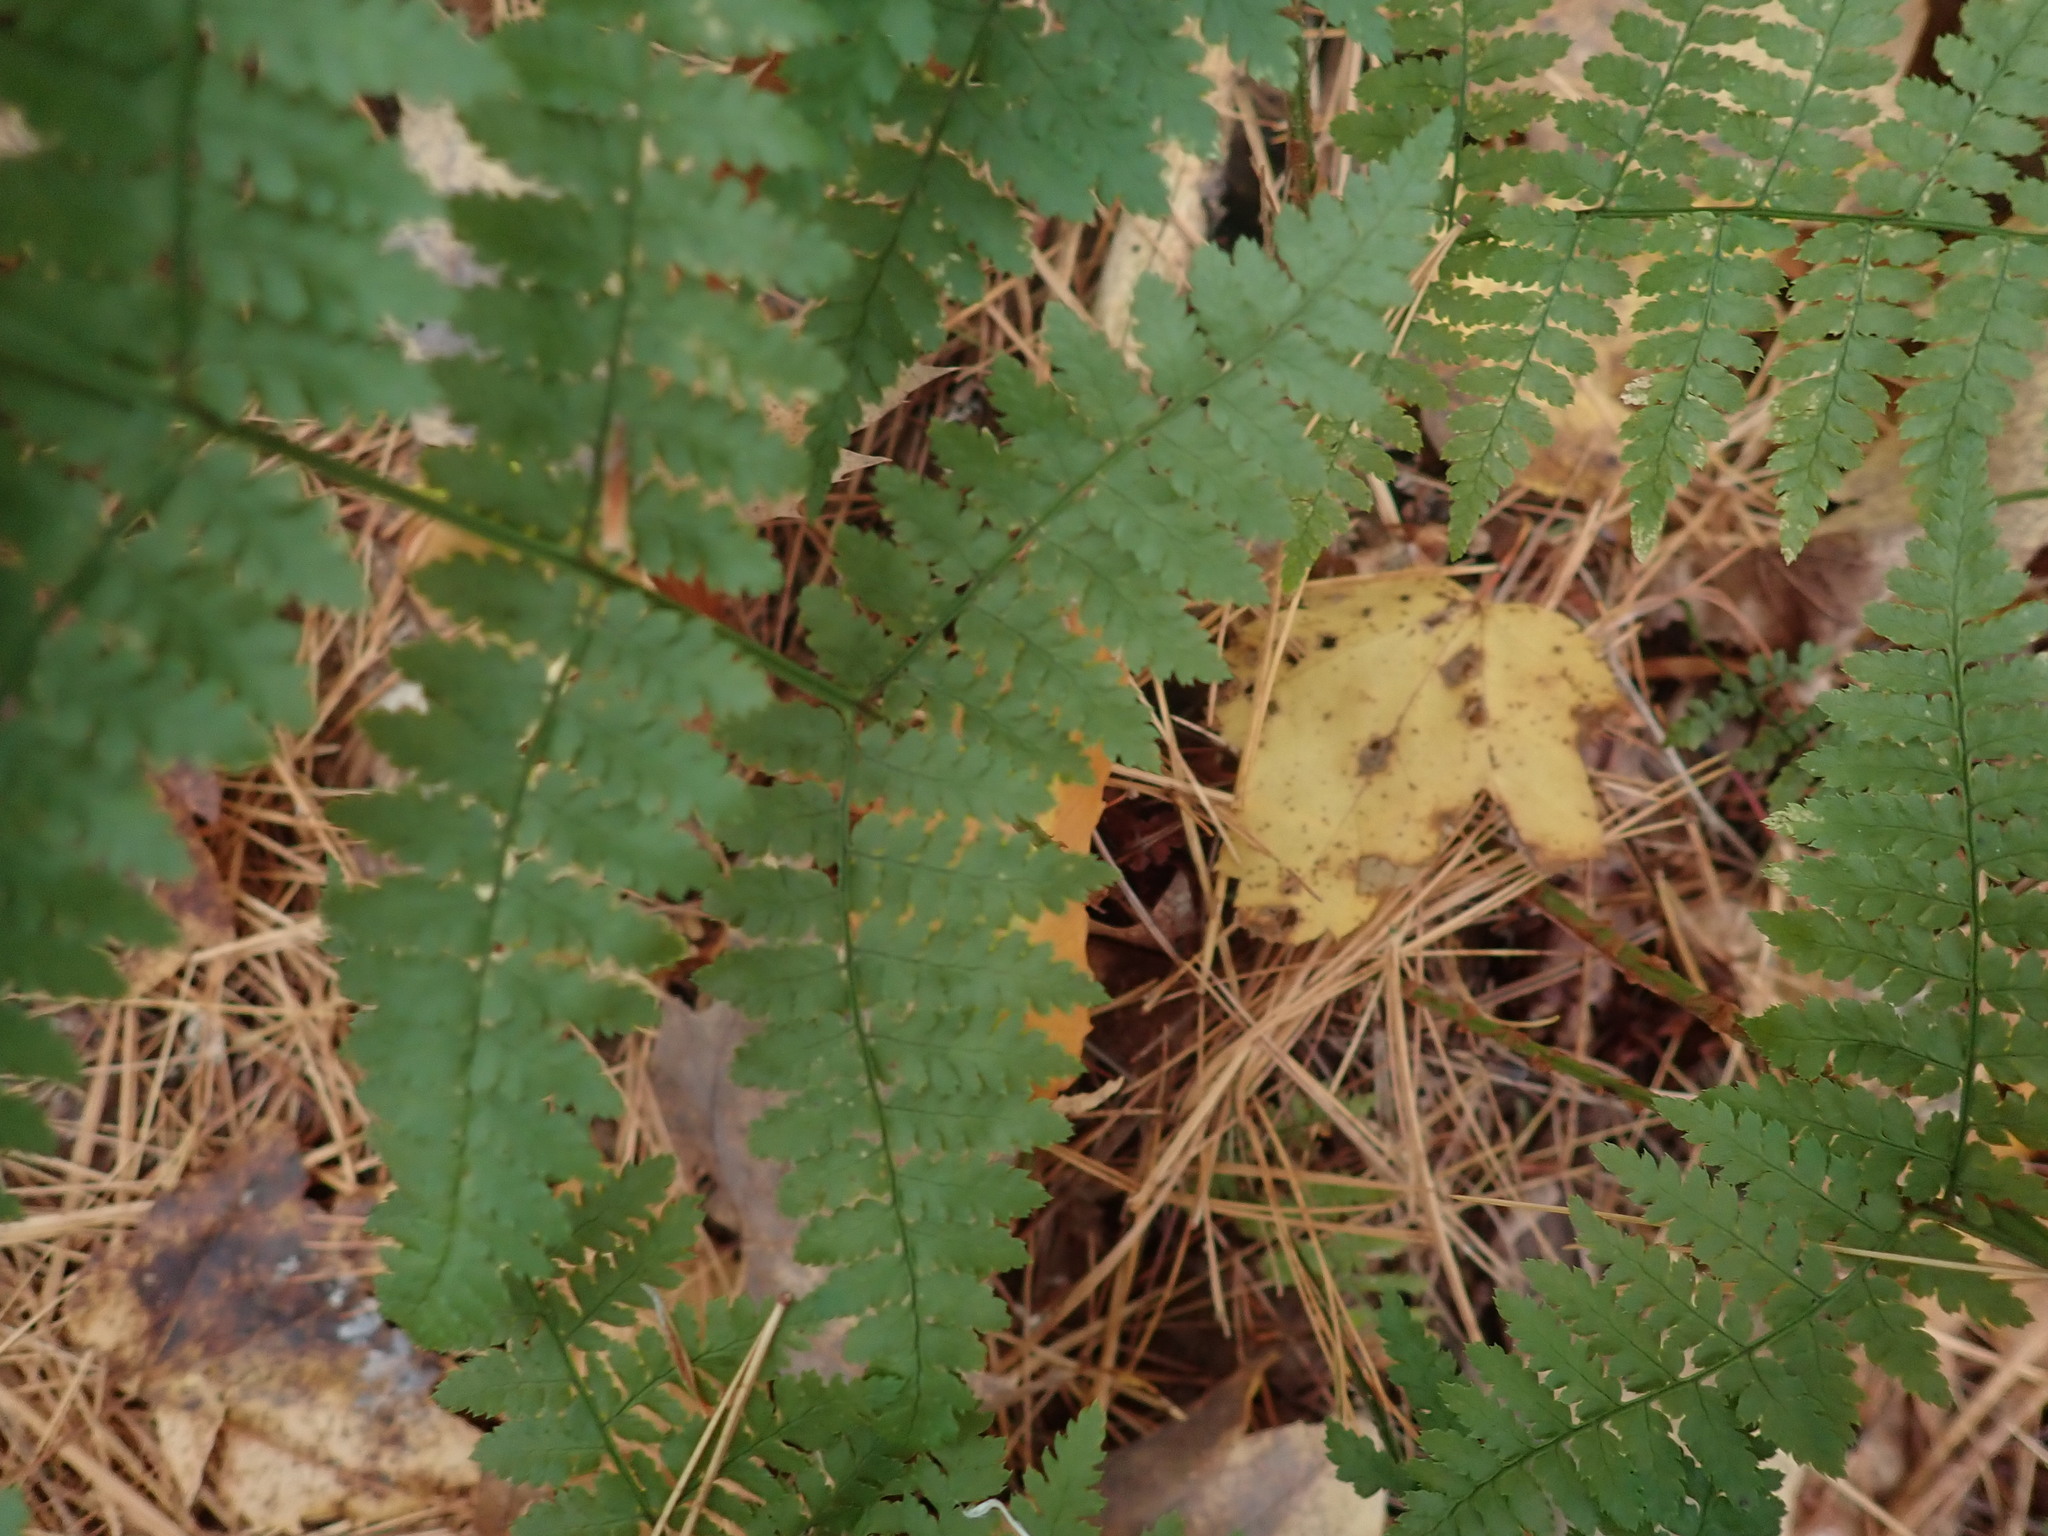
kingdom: Plantae
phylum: Tracheophyta
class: Polypodiopsida
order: Polypodiales
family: Dryopteridaceae
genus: Dryopteris
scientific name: Dryopteris intermedia
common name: Evergreen wood fern
